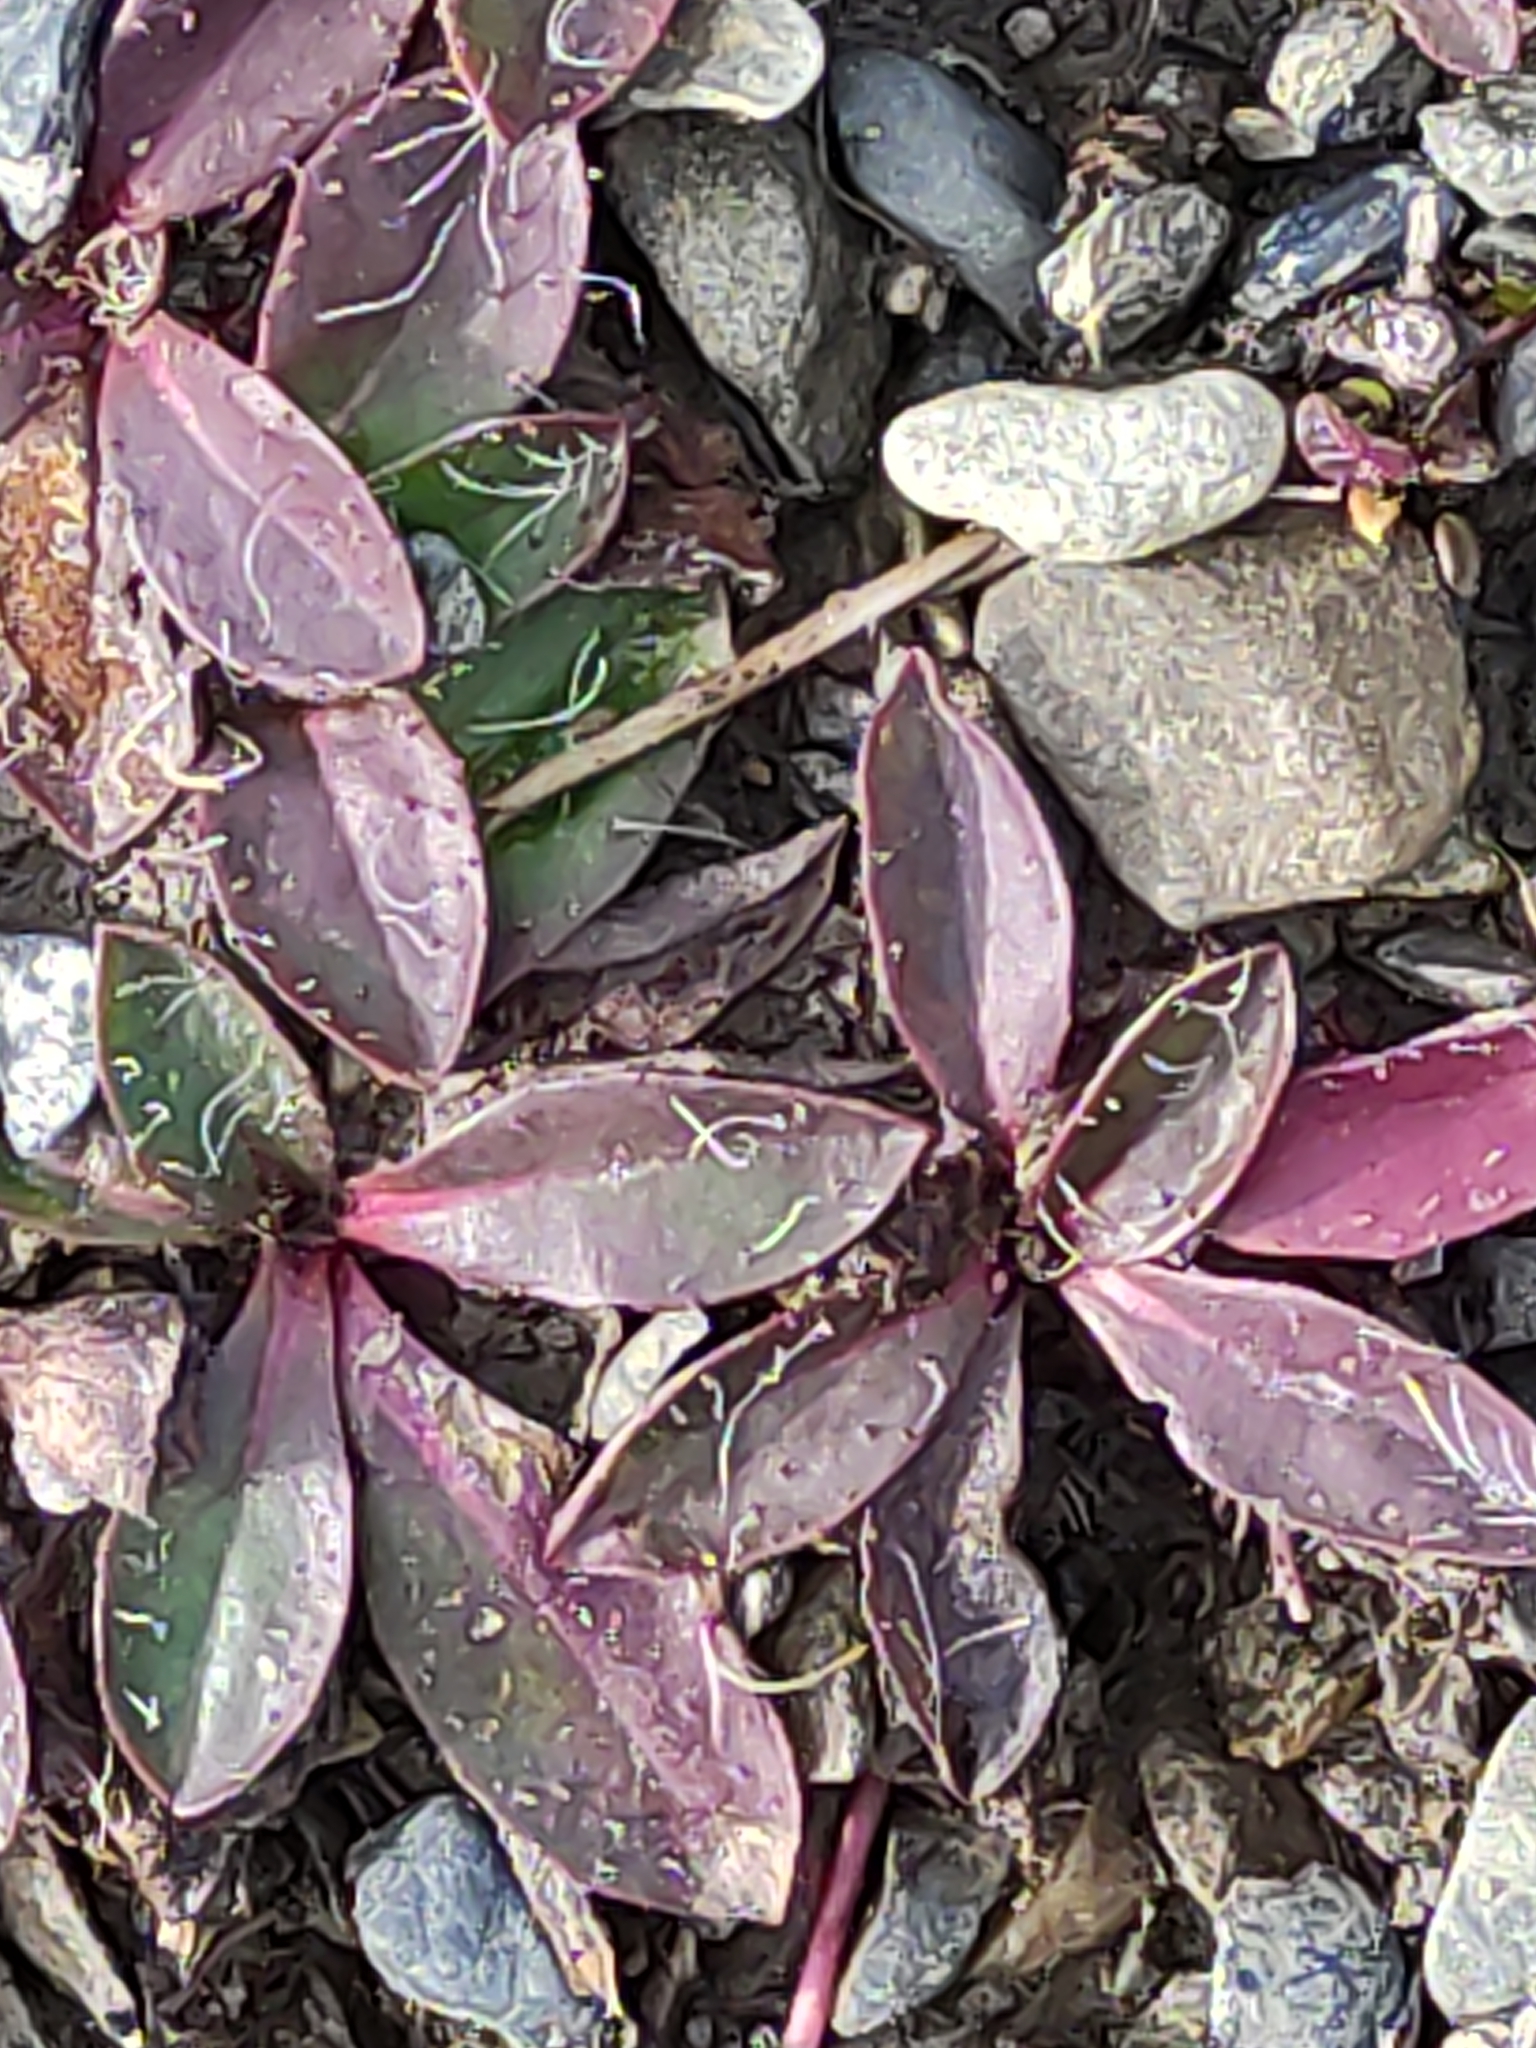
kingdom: Plantae
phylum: Tracheophyta
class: Magnoliopsida
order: Asterales
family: Asteraceae
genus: Pilosella
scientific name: Pilosella officinarum
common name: Mouse-ear hawkweed
